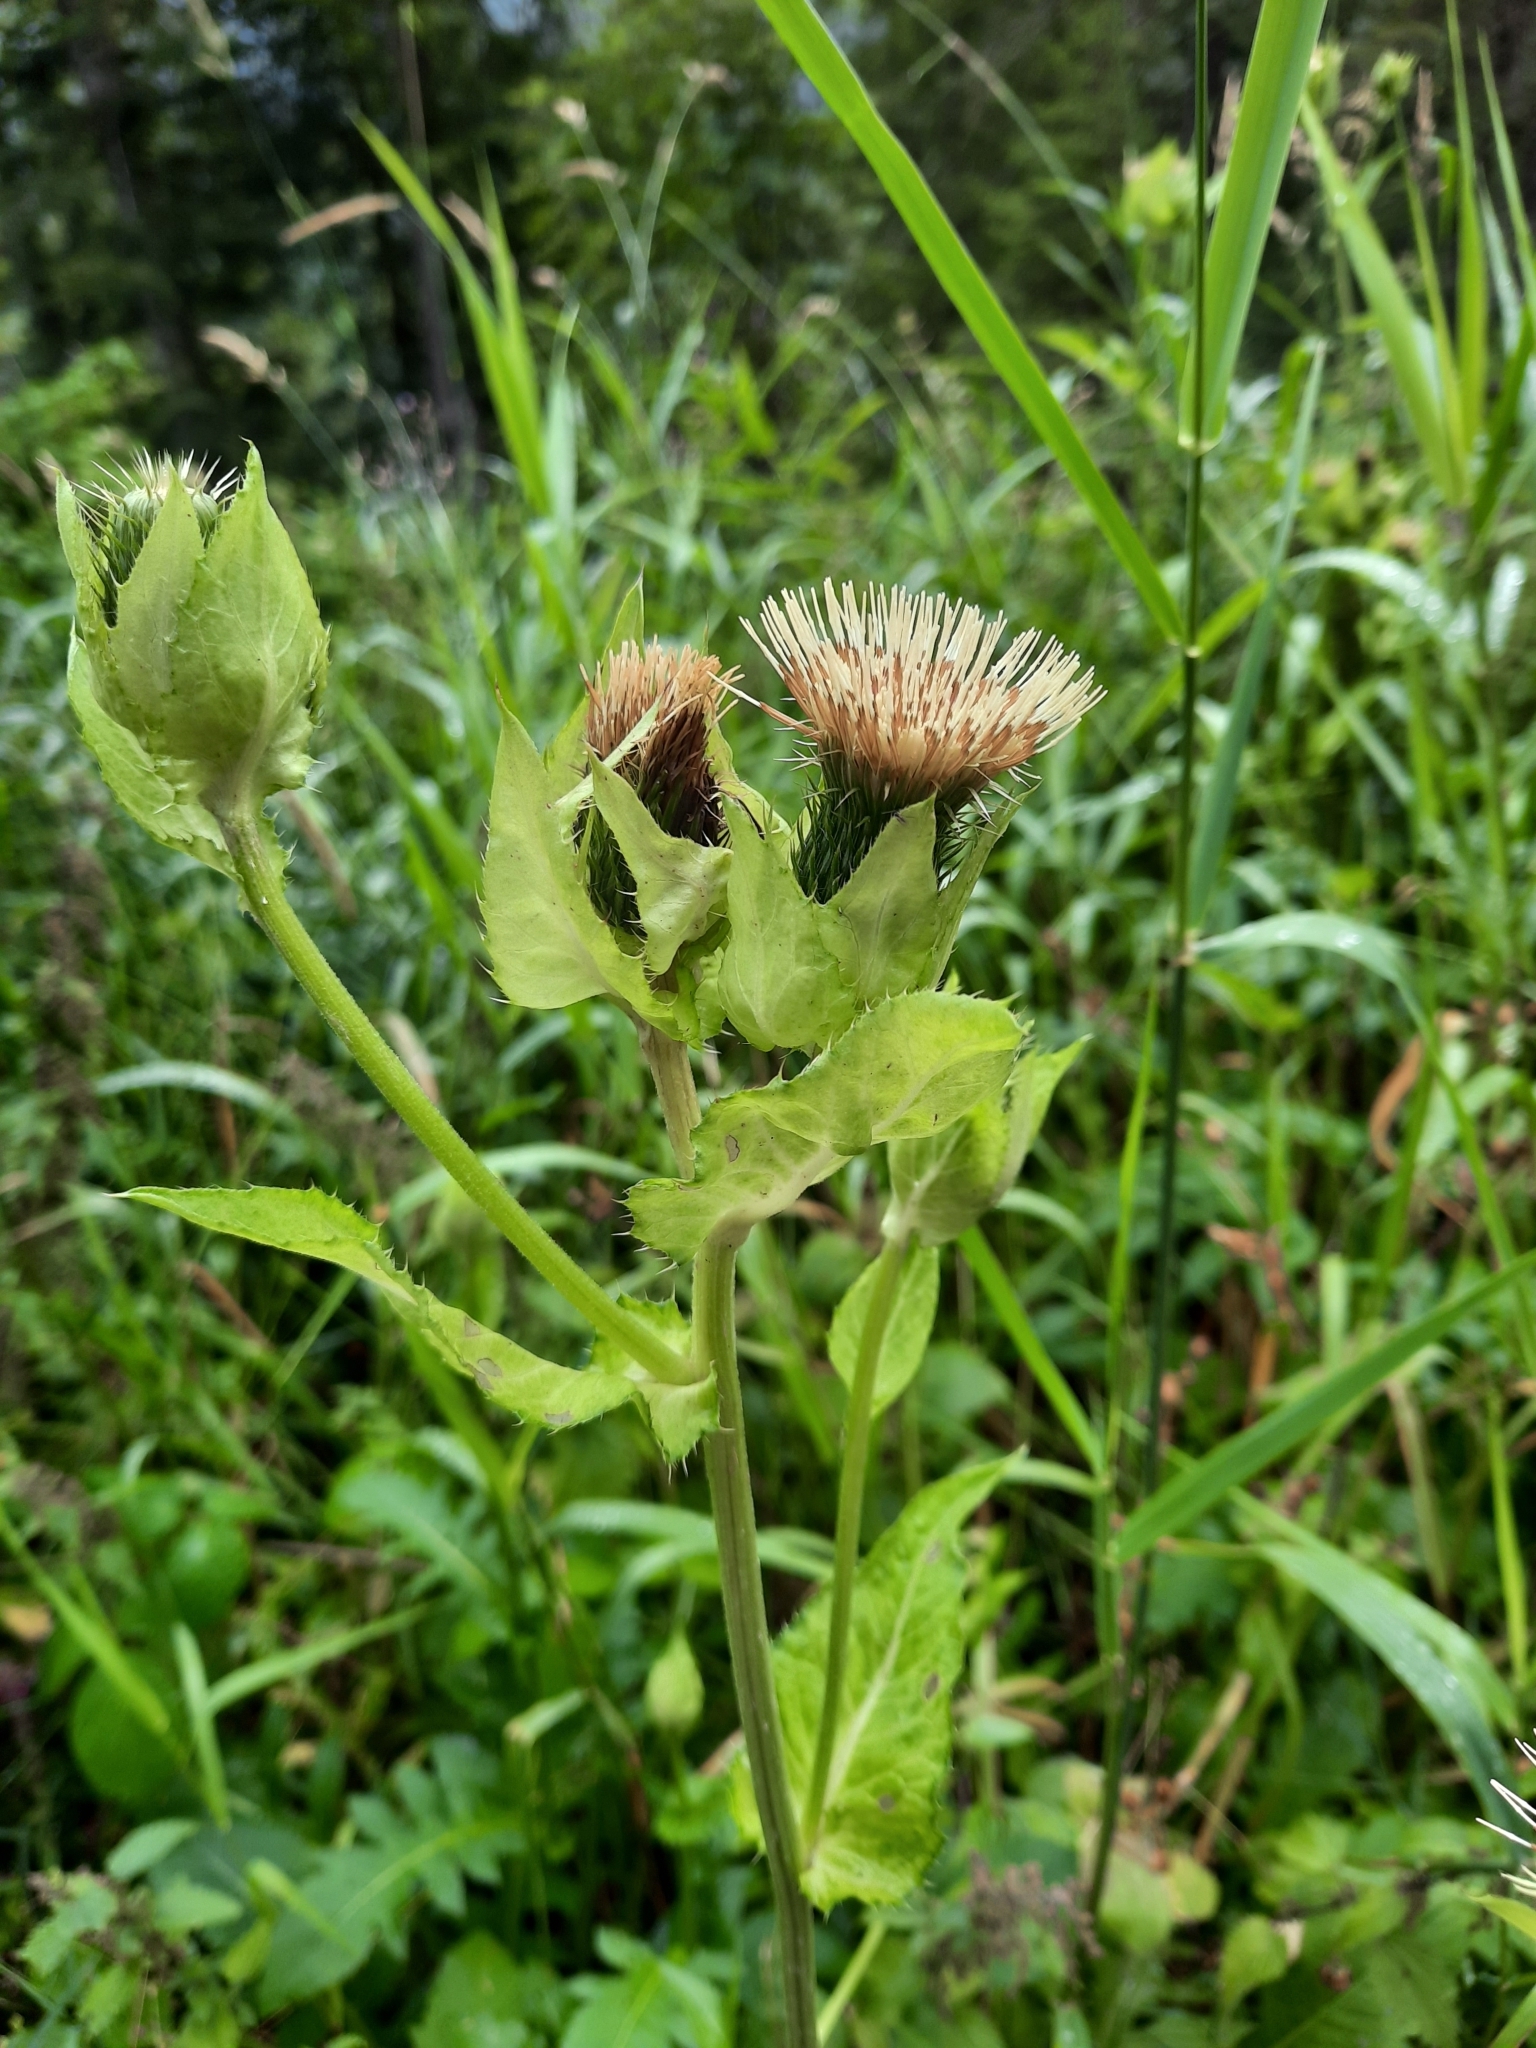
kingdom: Plantae
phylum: Tracheophyta
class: Magnoliopsida
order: Asterales
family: Asteraceae
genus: Cirsium
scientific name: Cirsium oleraceum
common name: Cabbage thistle
